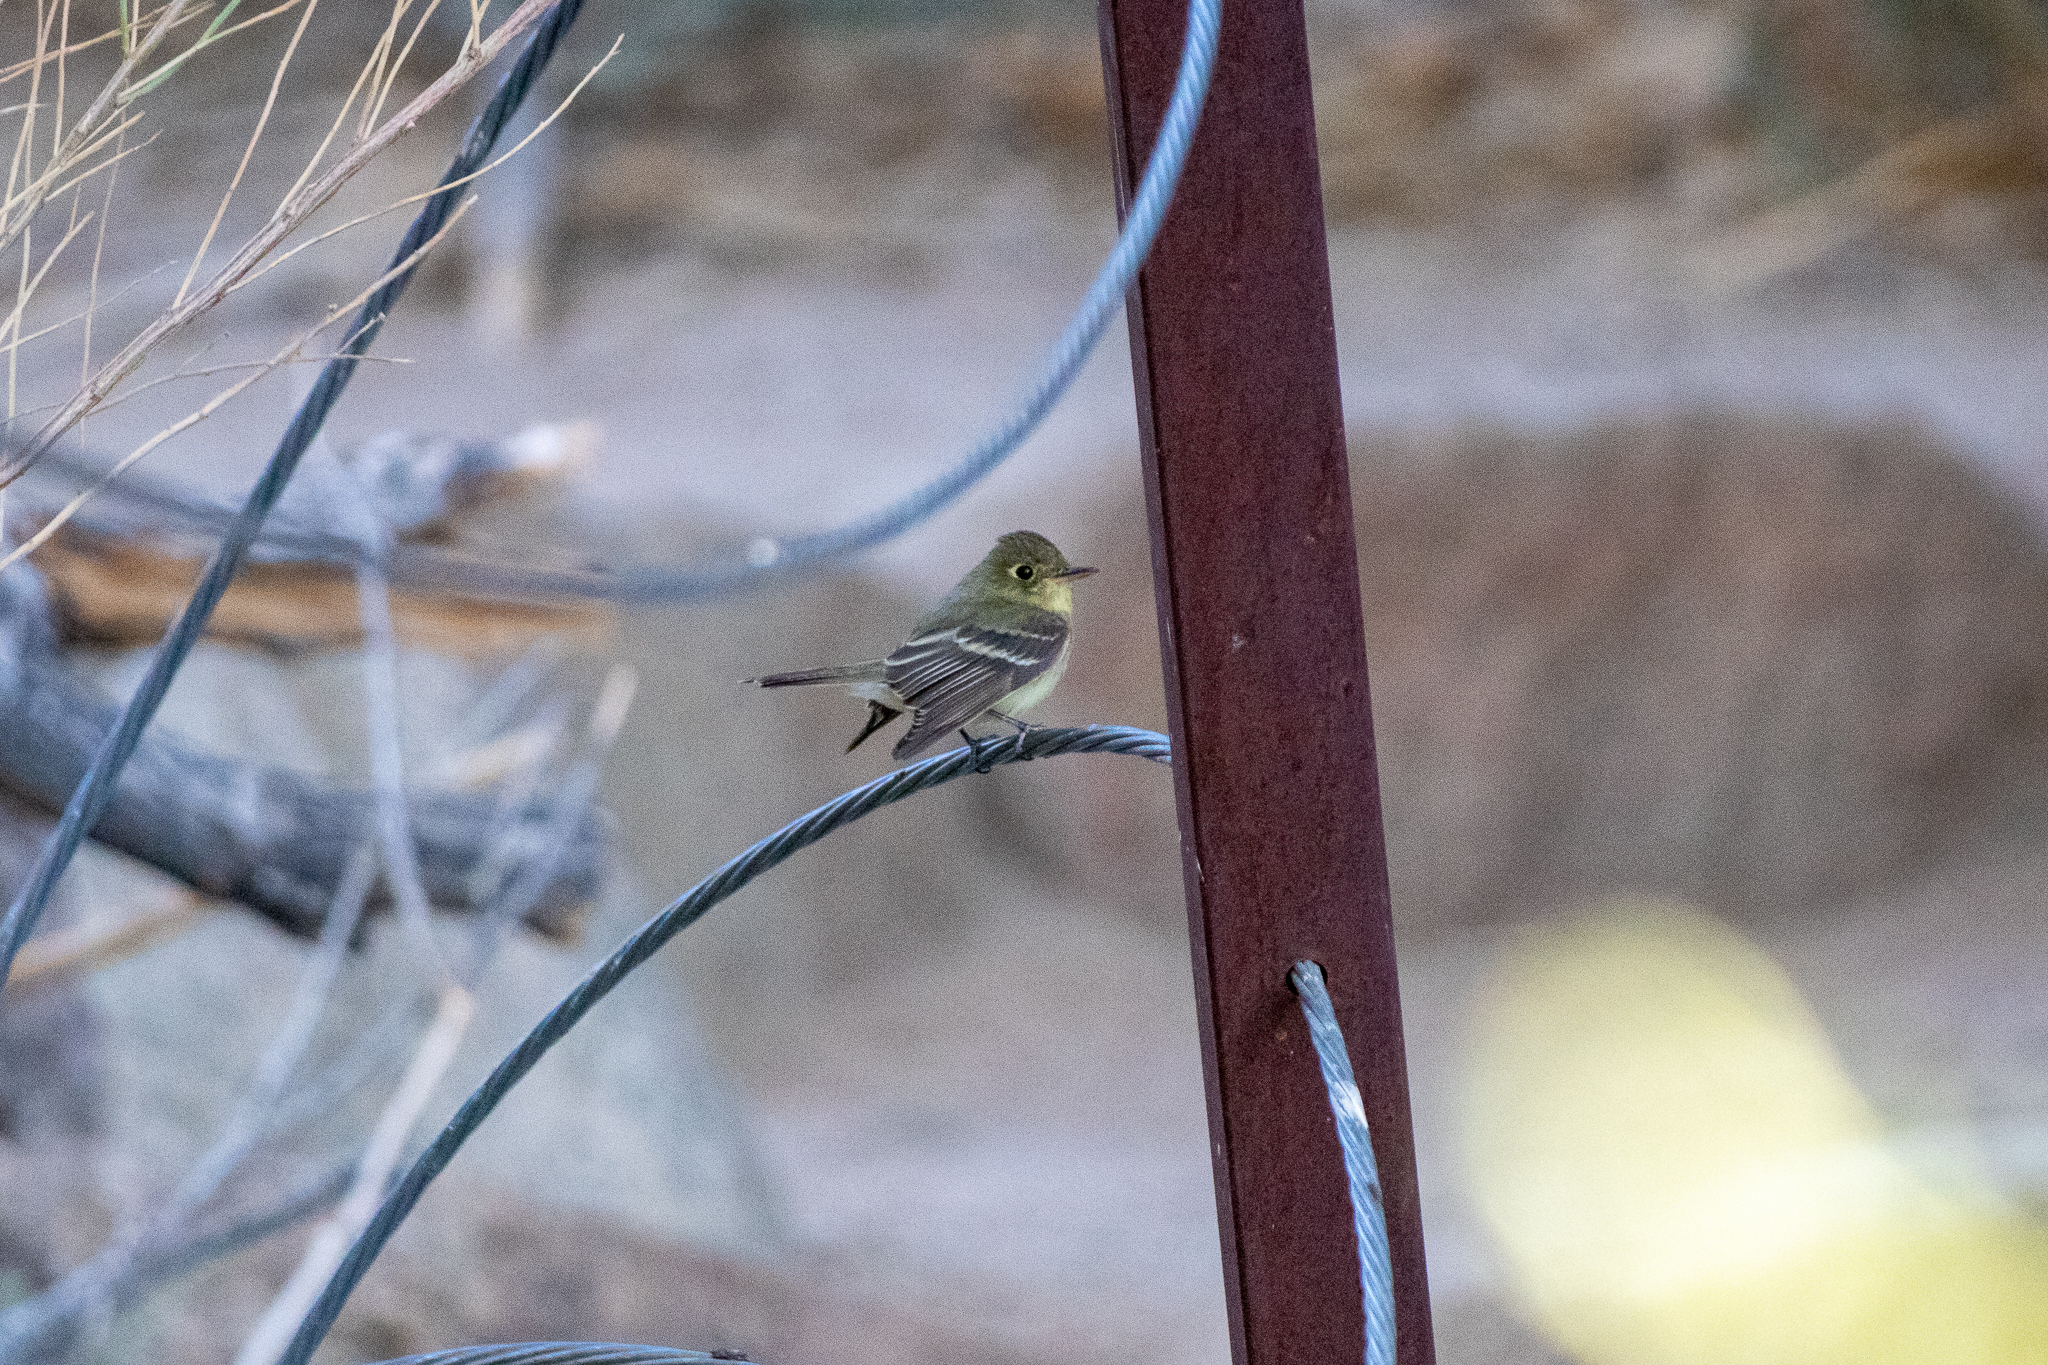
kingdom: Animalia
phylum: Chordata
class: Aves
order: Passeriformes
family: Tyrannidae
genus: Empidonax
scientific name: Empidonax difficilis
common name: Pacific-slope flycatcher
